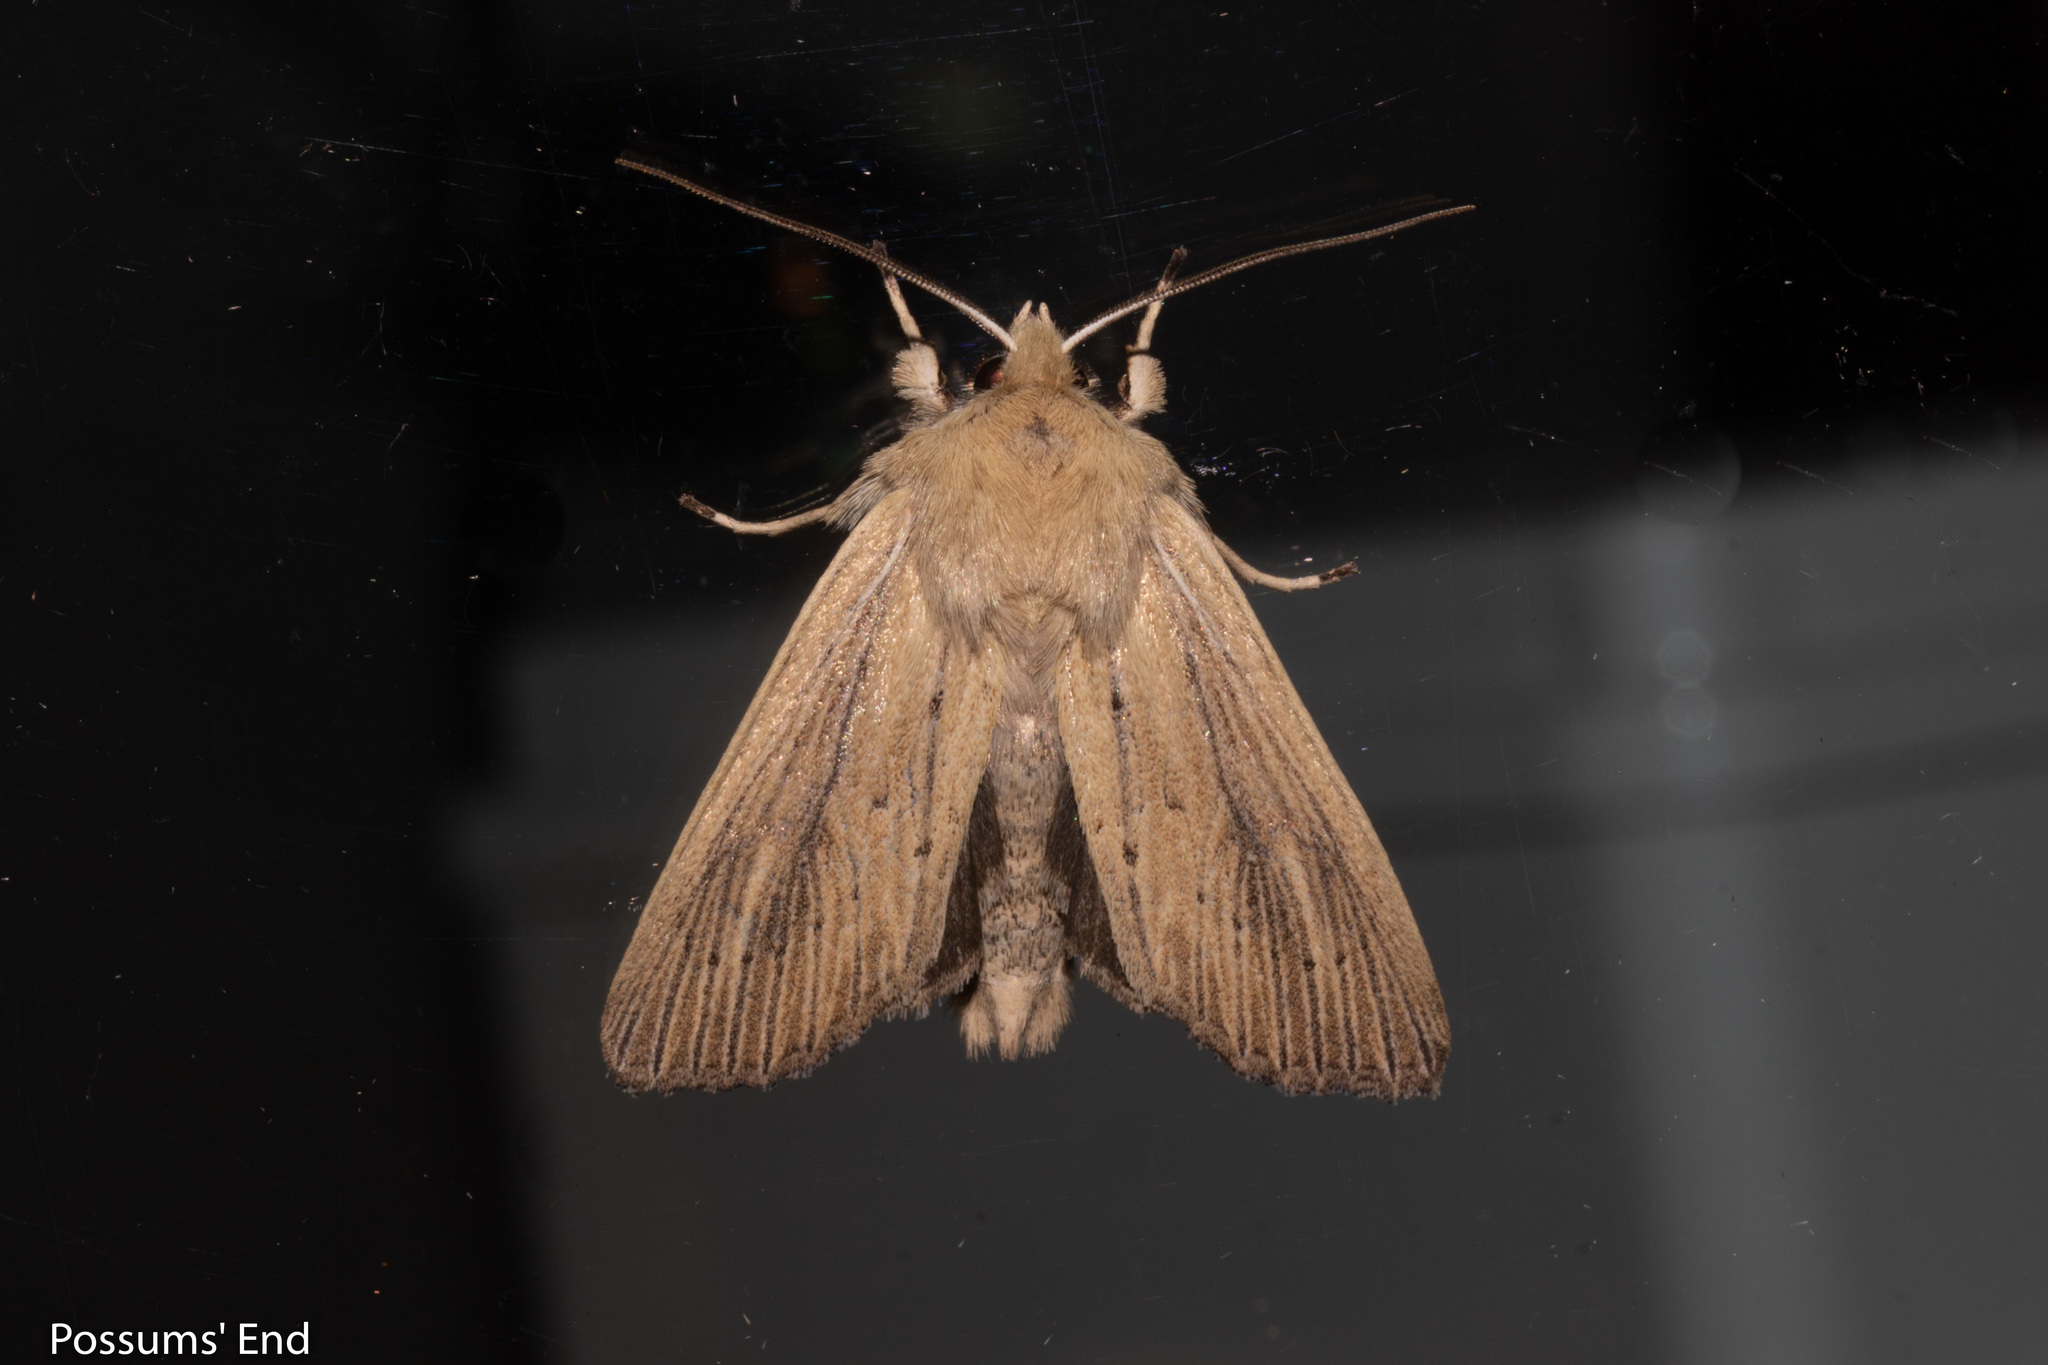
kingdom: Animalia
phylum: Arthropoda
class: Insecta
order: Lepidoptera
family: Noctuidae
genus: Ichneutica
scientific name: Ichneutica arotis
